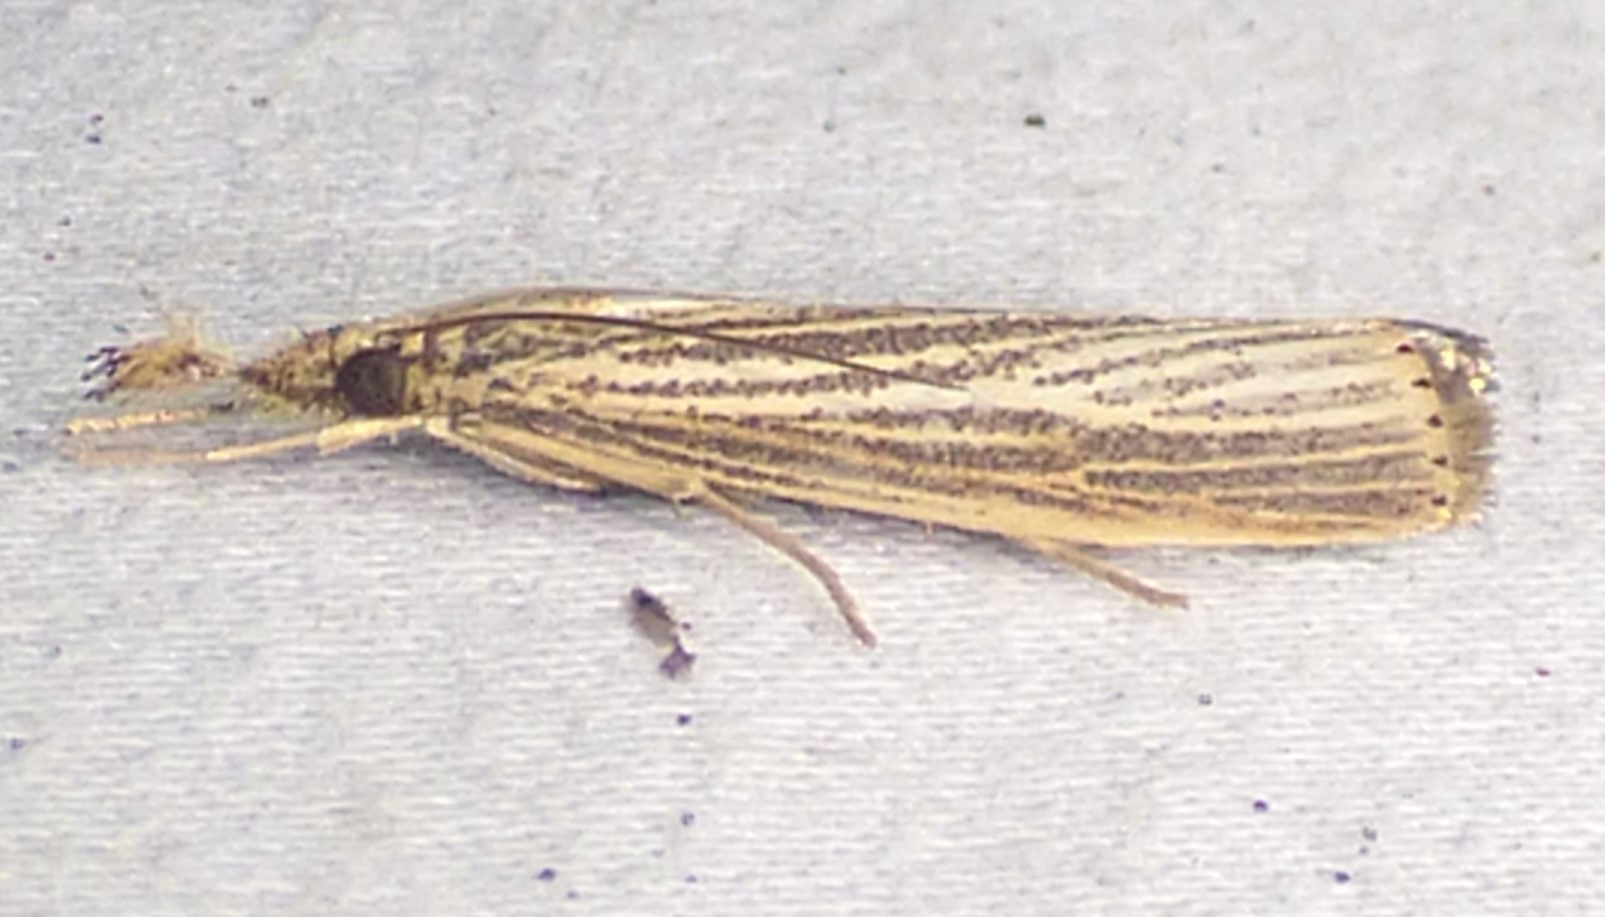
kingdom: Animalia
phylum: Arthropoda
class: Insecta
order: Lepidoptera
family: Crambidae
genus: Agriphila
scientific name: Agriphila vulgivagellus
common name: Vagabond crambus moth
